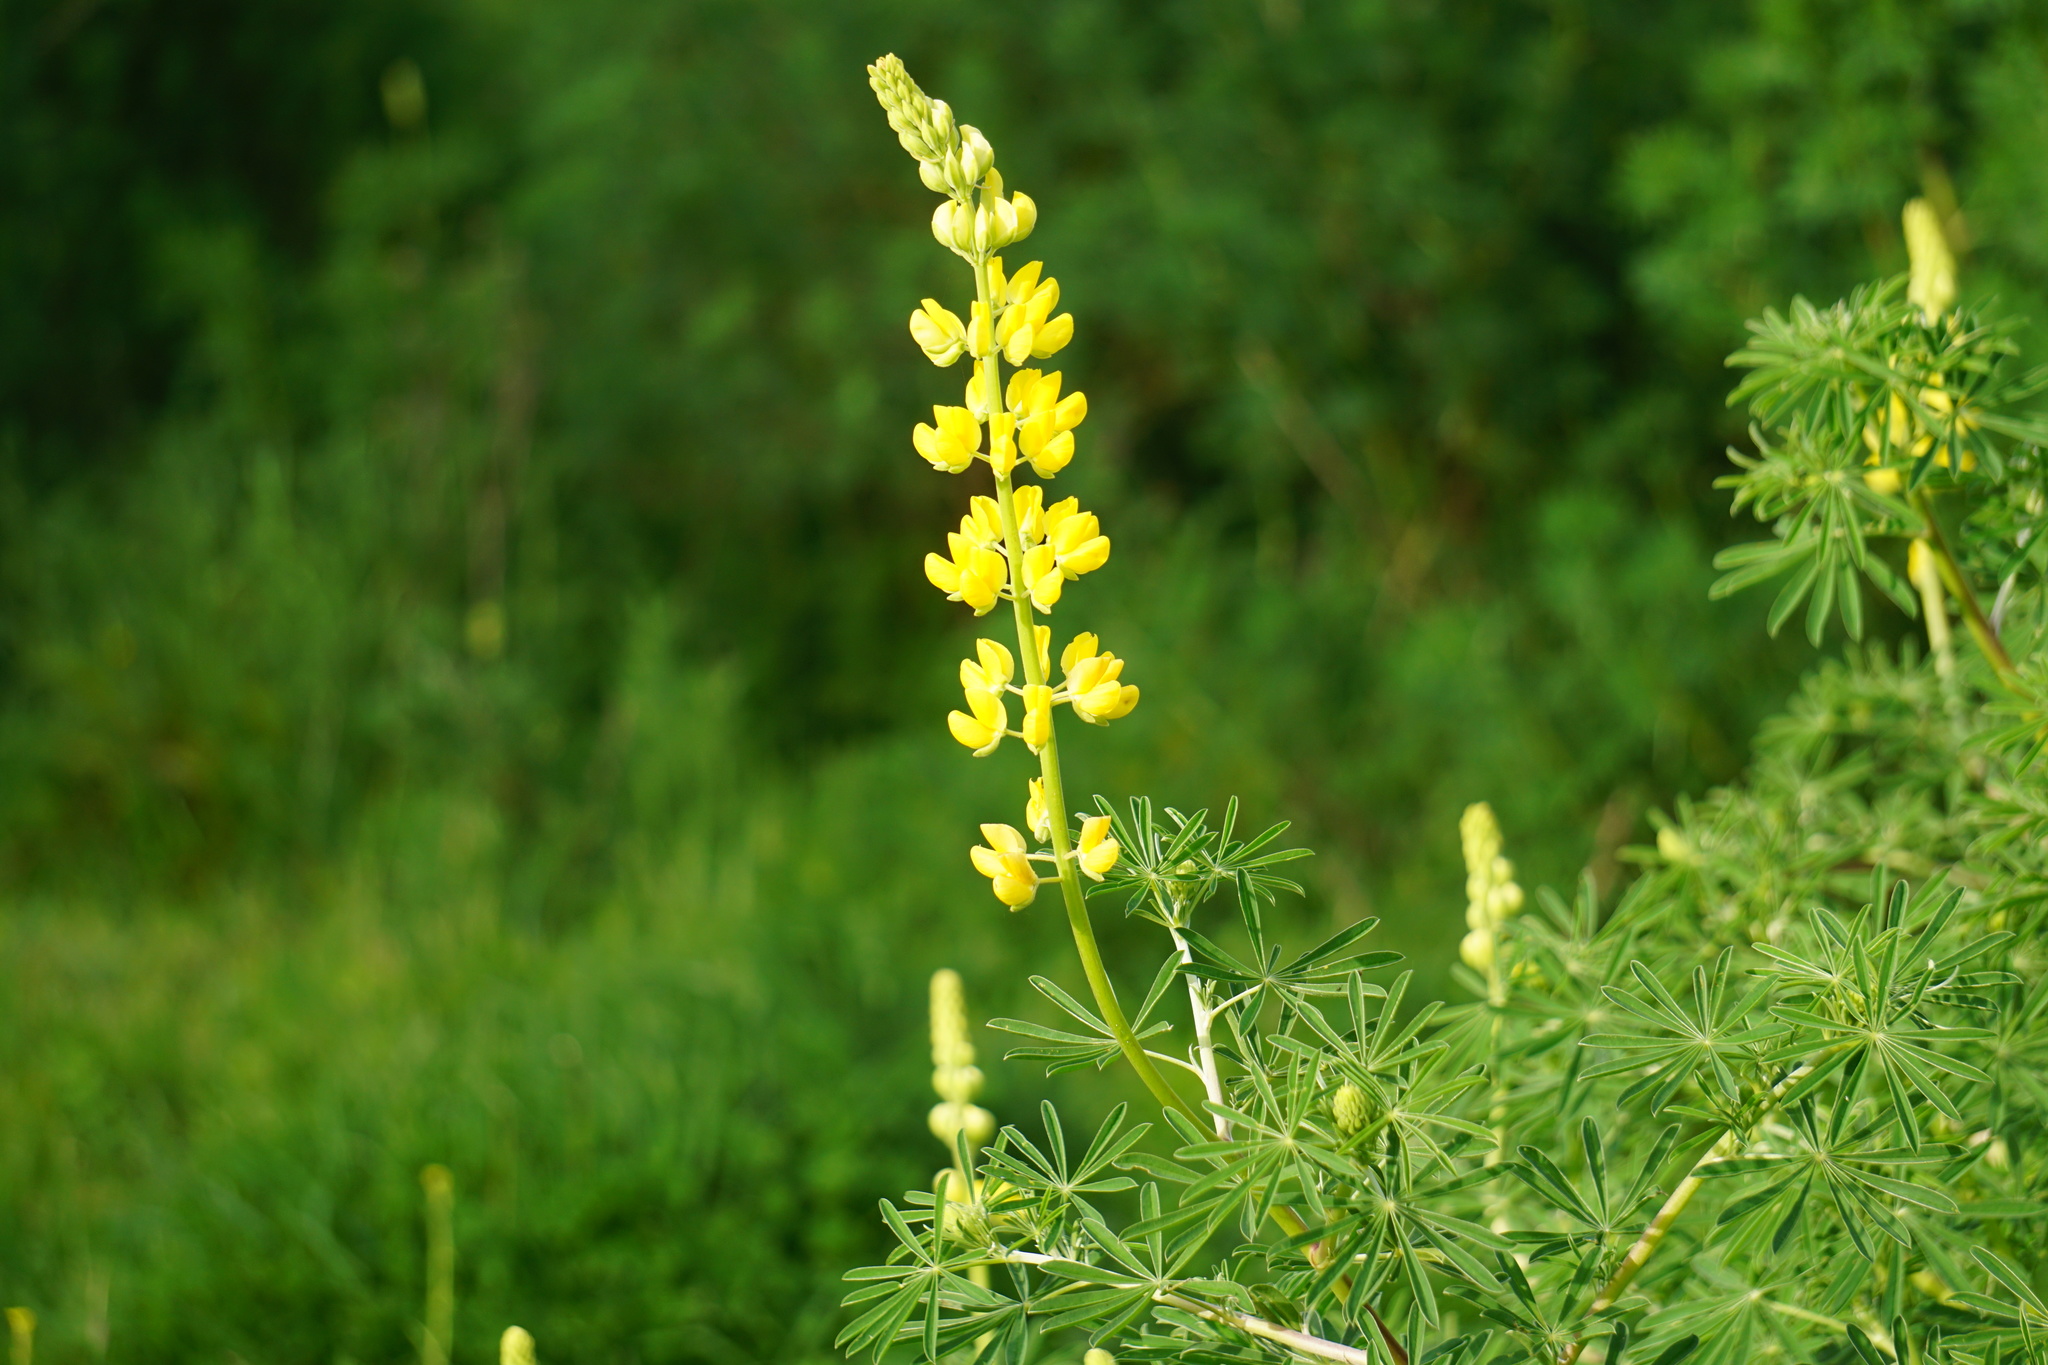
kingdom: Plantae
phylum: Tracheophyta
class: Magnoliopsida
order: Fabales
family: Fabaceae
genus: Lupinus
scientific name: Lupinus arboreus
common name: Yellow bush lupine
